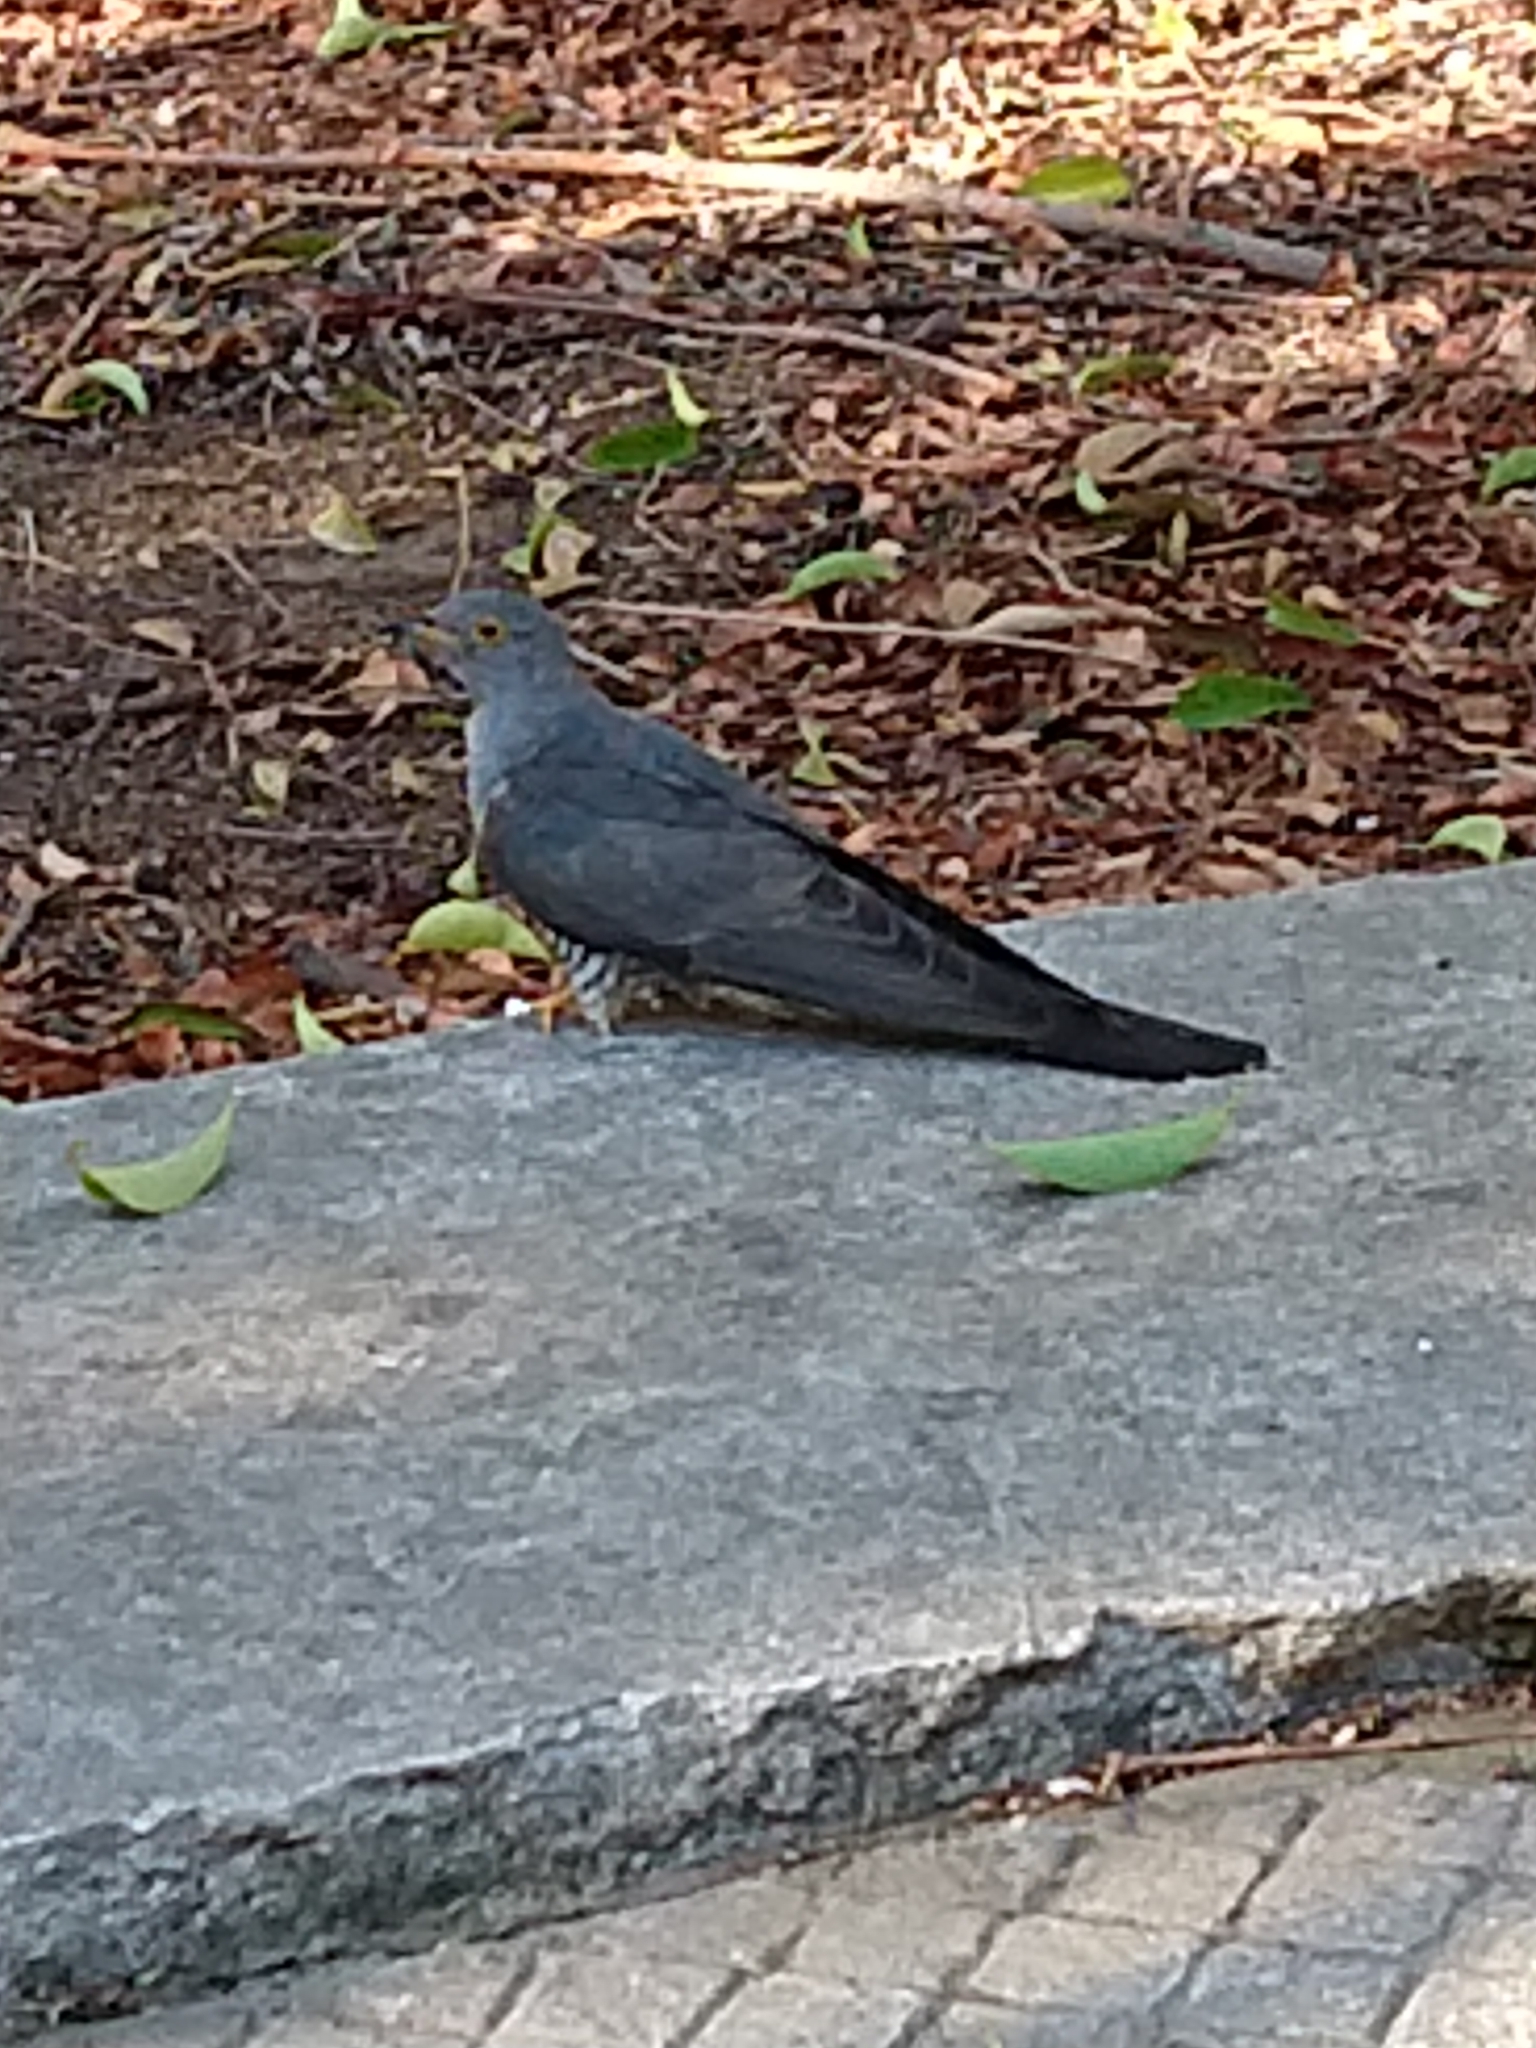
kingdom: Animalia
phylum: Chordata
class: Aves
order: Cuculiformes
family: Cuculidae
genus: Cuculus
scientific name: Cuculus canorus
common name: Common cuckoo
